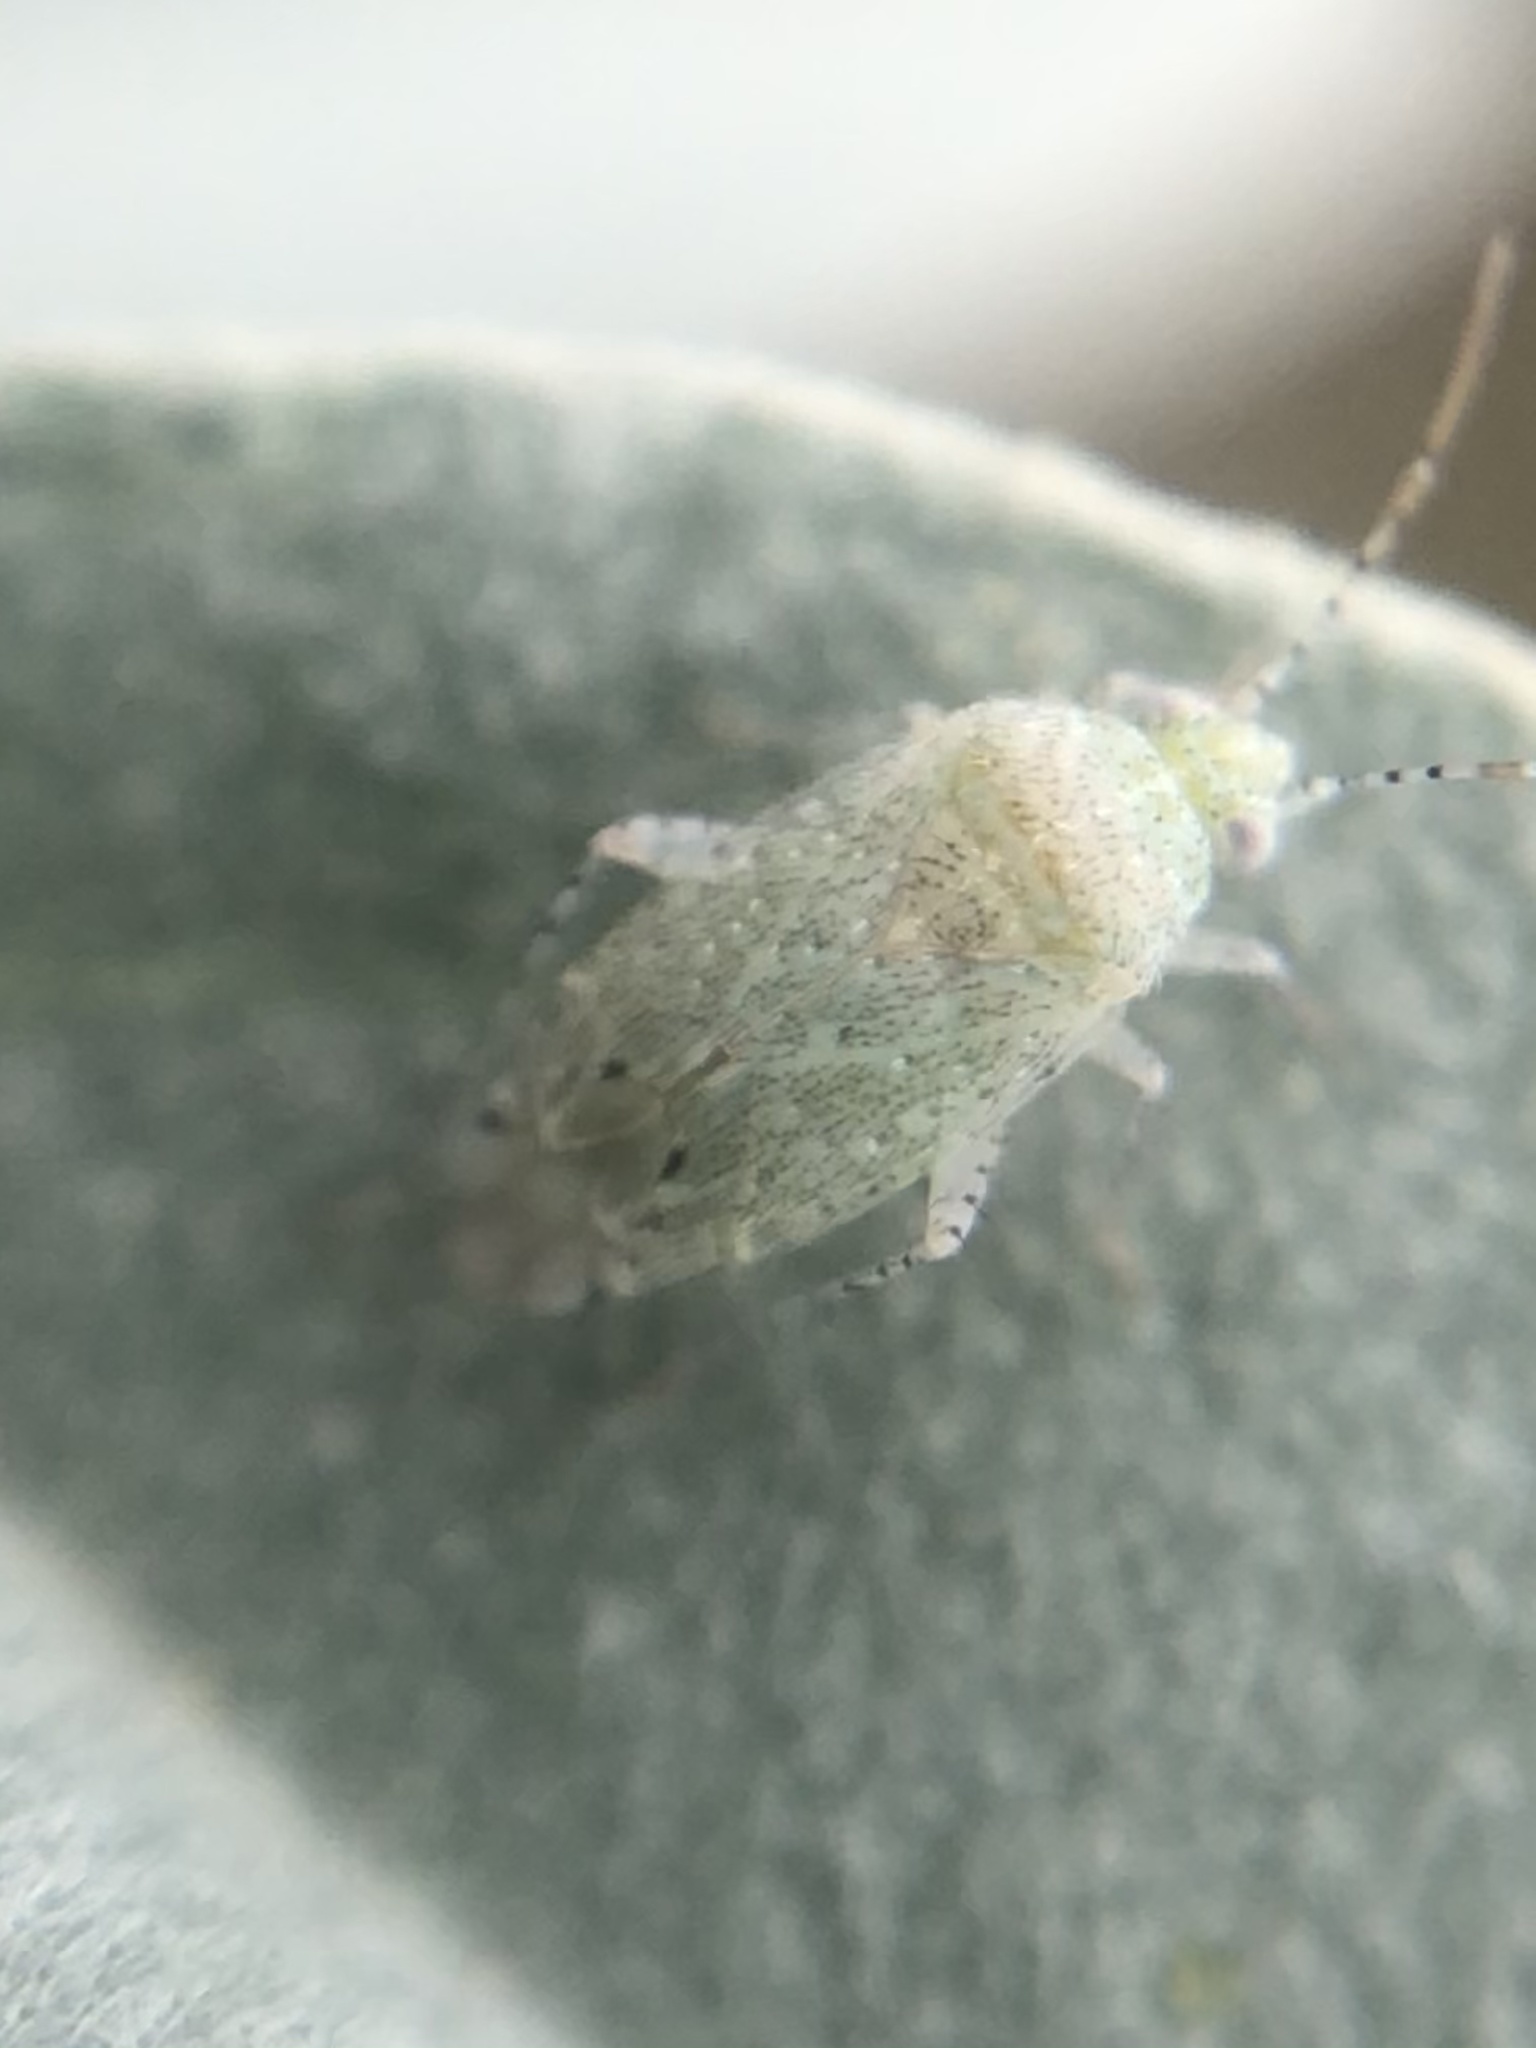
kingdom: Animalia
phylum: Arthropoda
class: Insecta
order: Hemiptera
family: Miridae
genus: Pseudatomoscelis
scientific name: Pseudatomoscelis seriatus
